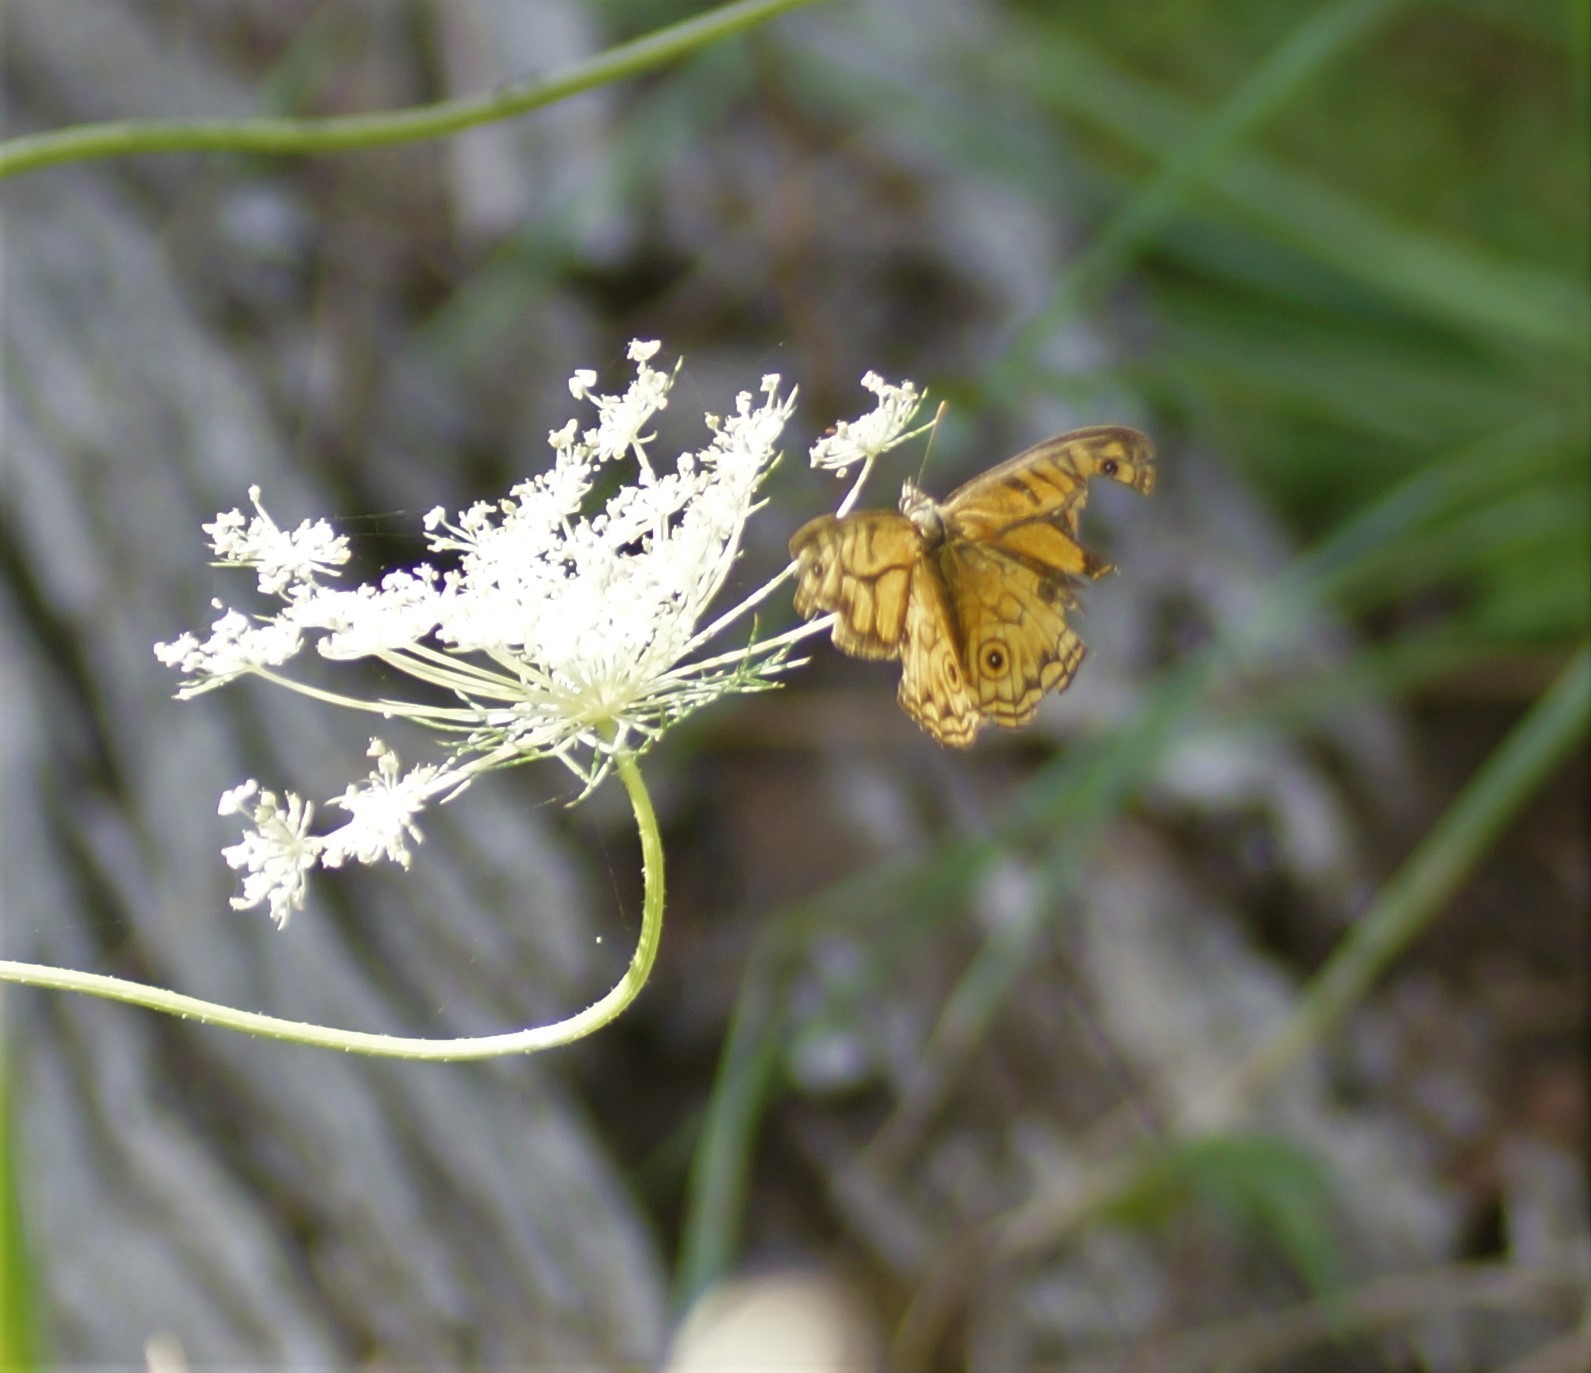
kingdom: Animalia
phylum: Arthropoda
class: Insecta
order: Lepidoptera
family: Nymphalidae
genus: Geitoneura
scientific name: Geitoneura acantha
